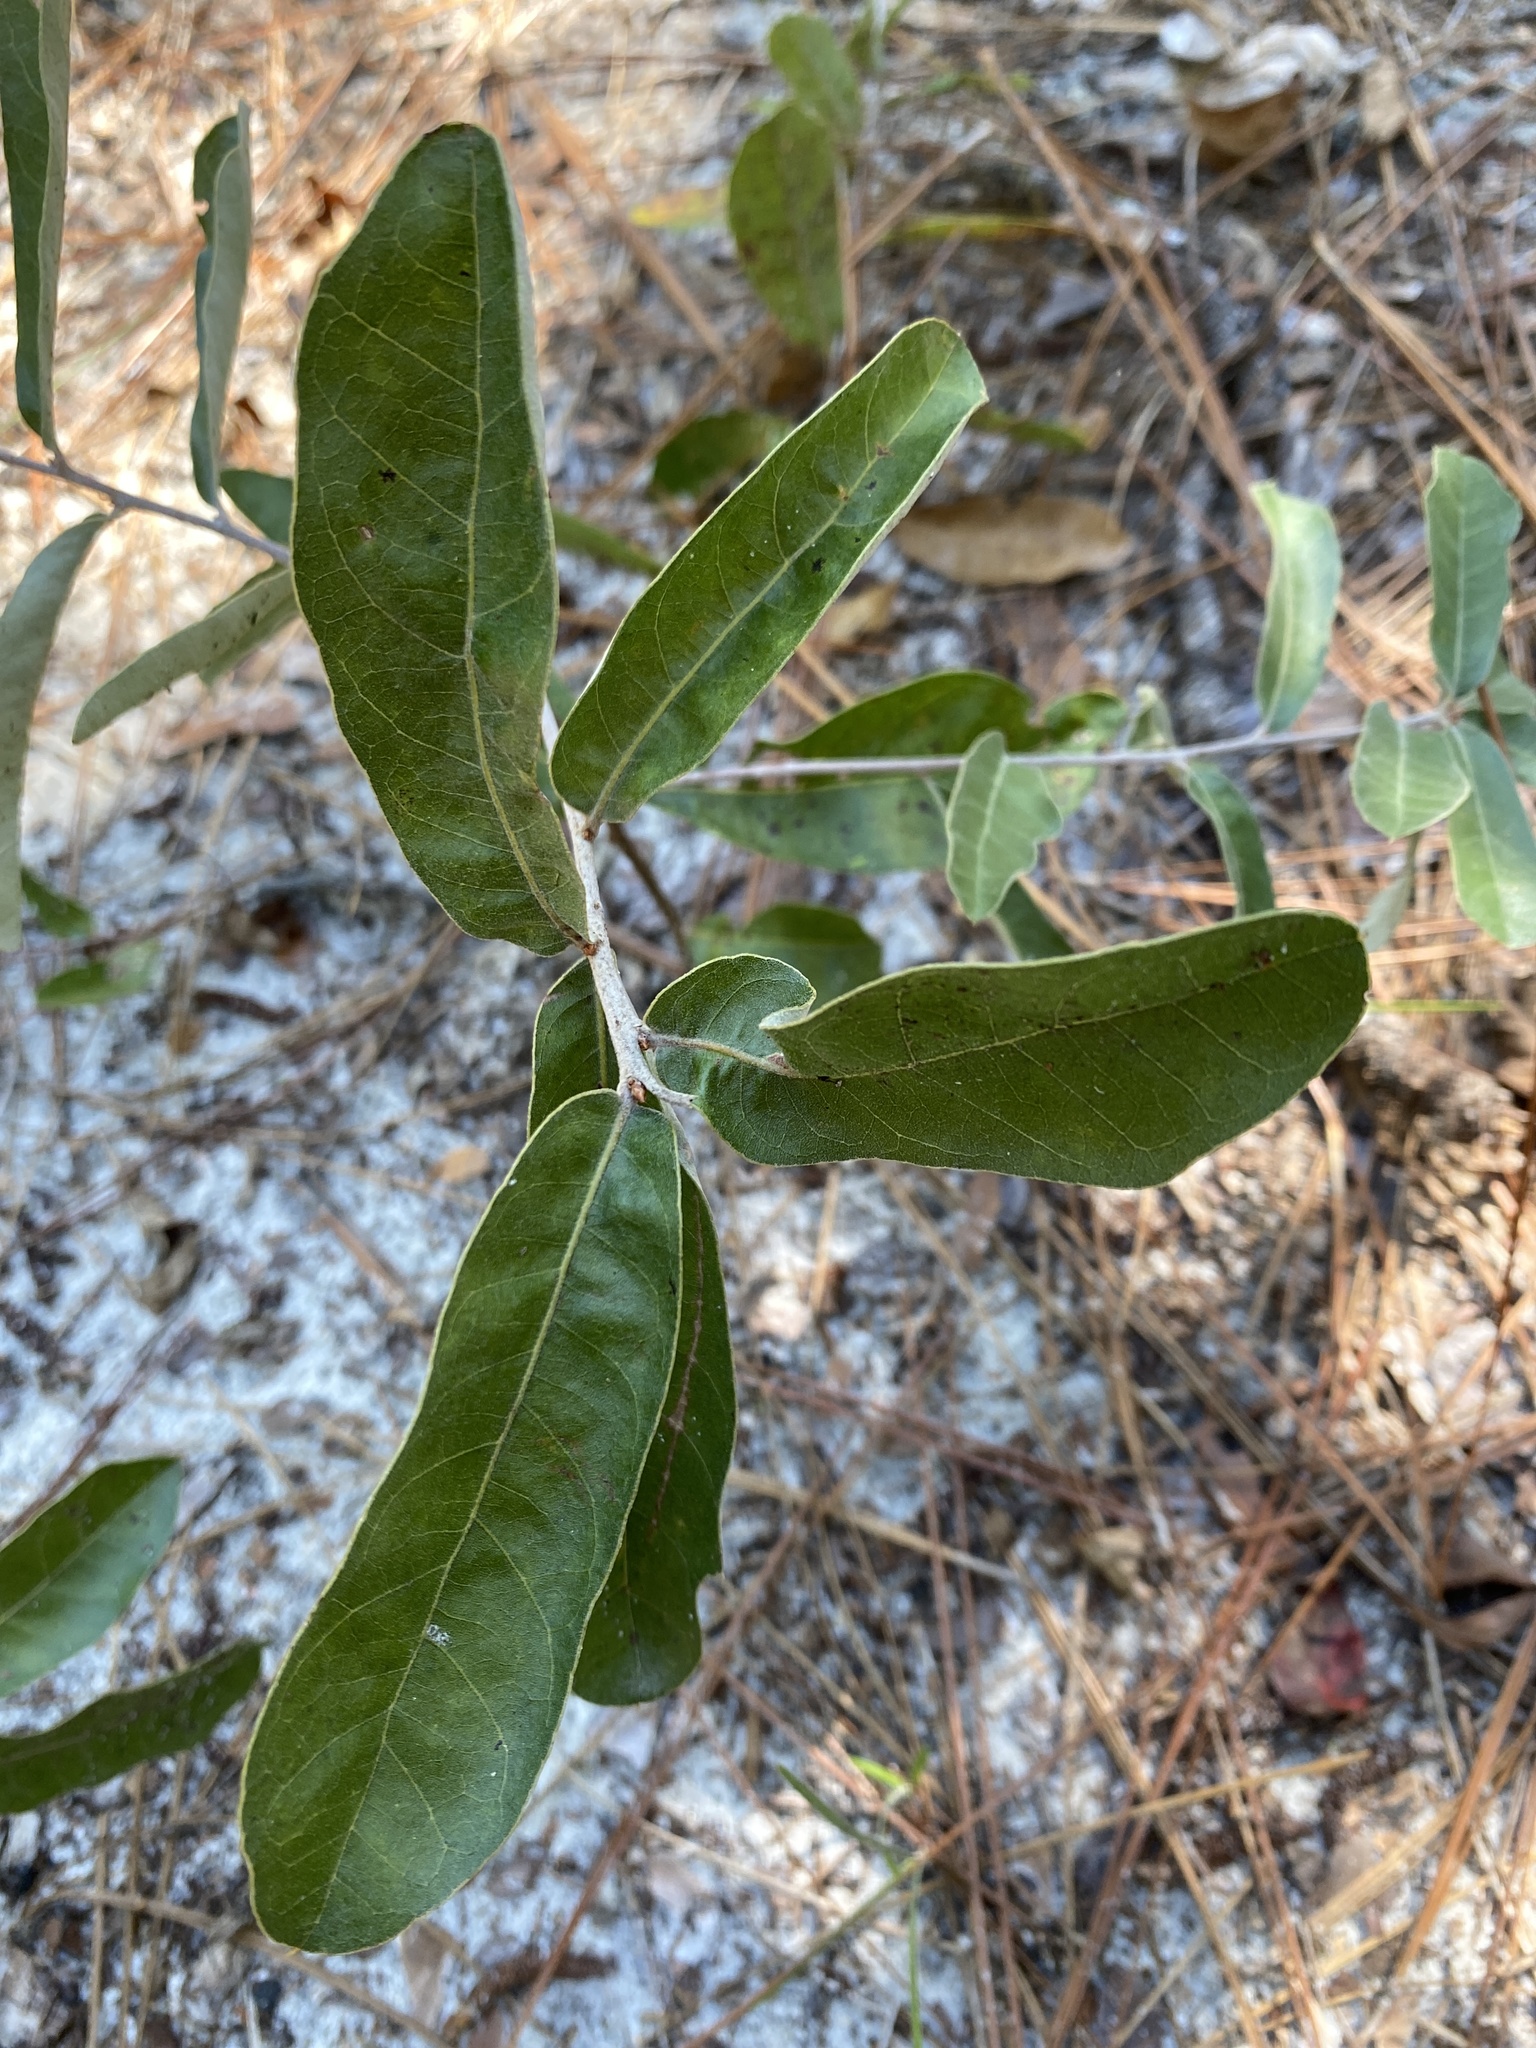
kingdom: Plantae
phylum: Tracheophyta
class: Magnoliopsida
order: Fagales
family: Fagaceae
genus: Quercus
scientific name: Quercus incana
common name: Bluejack oak
